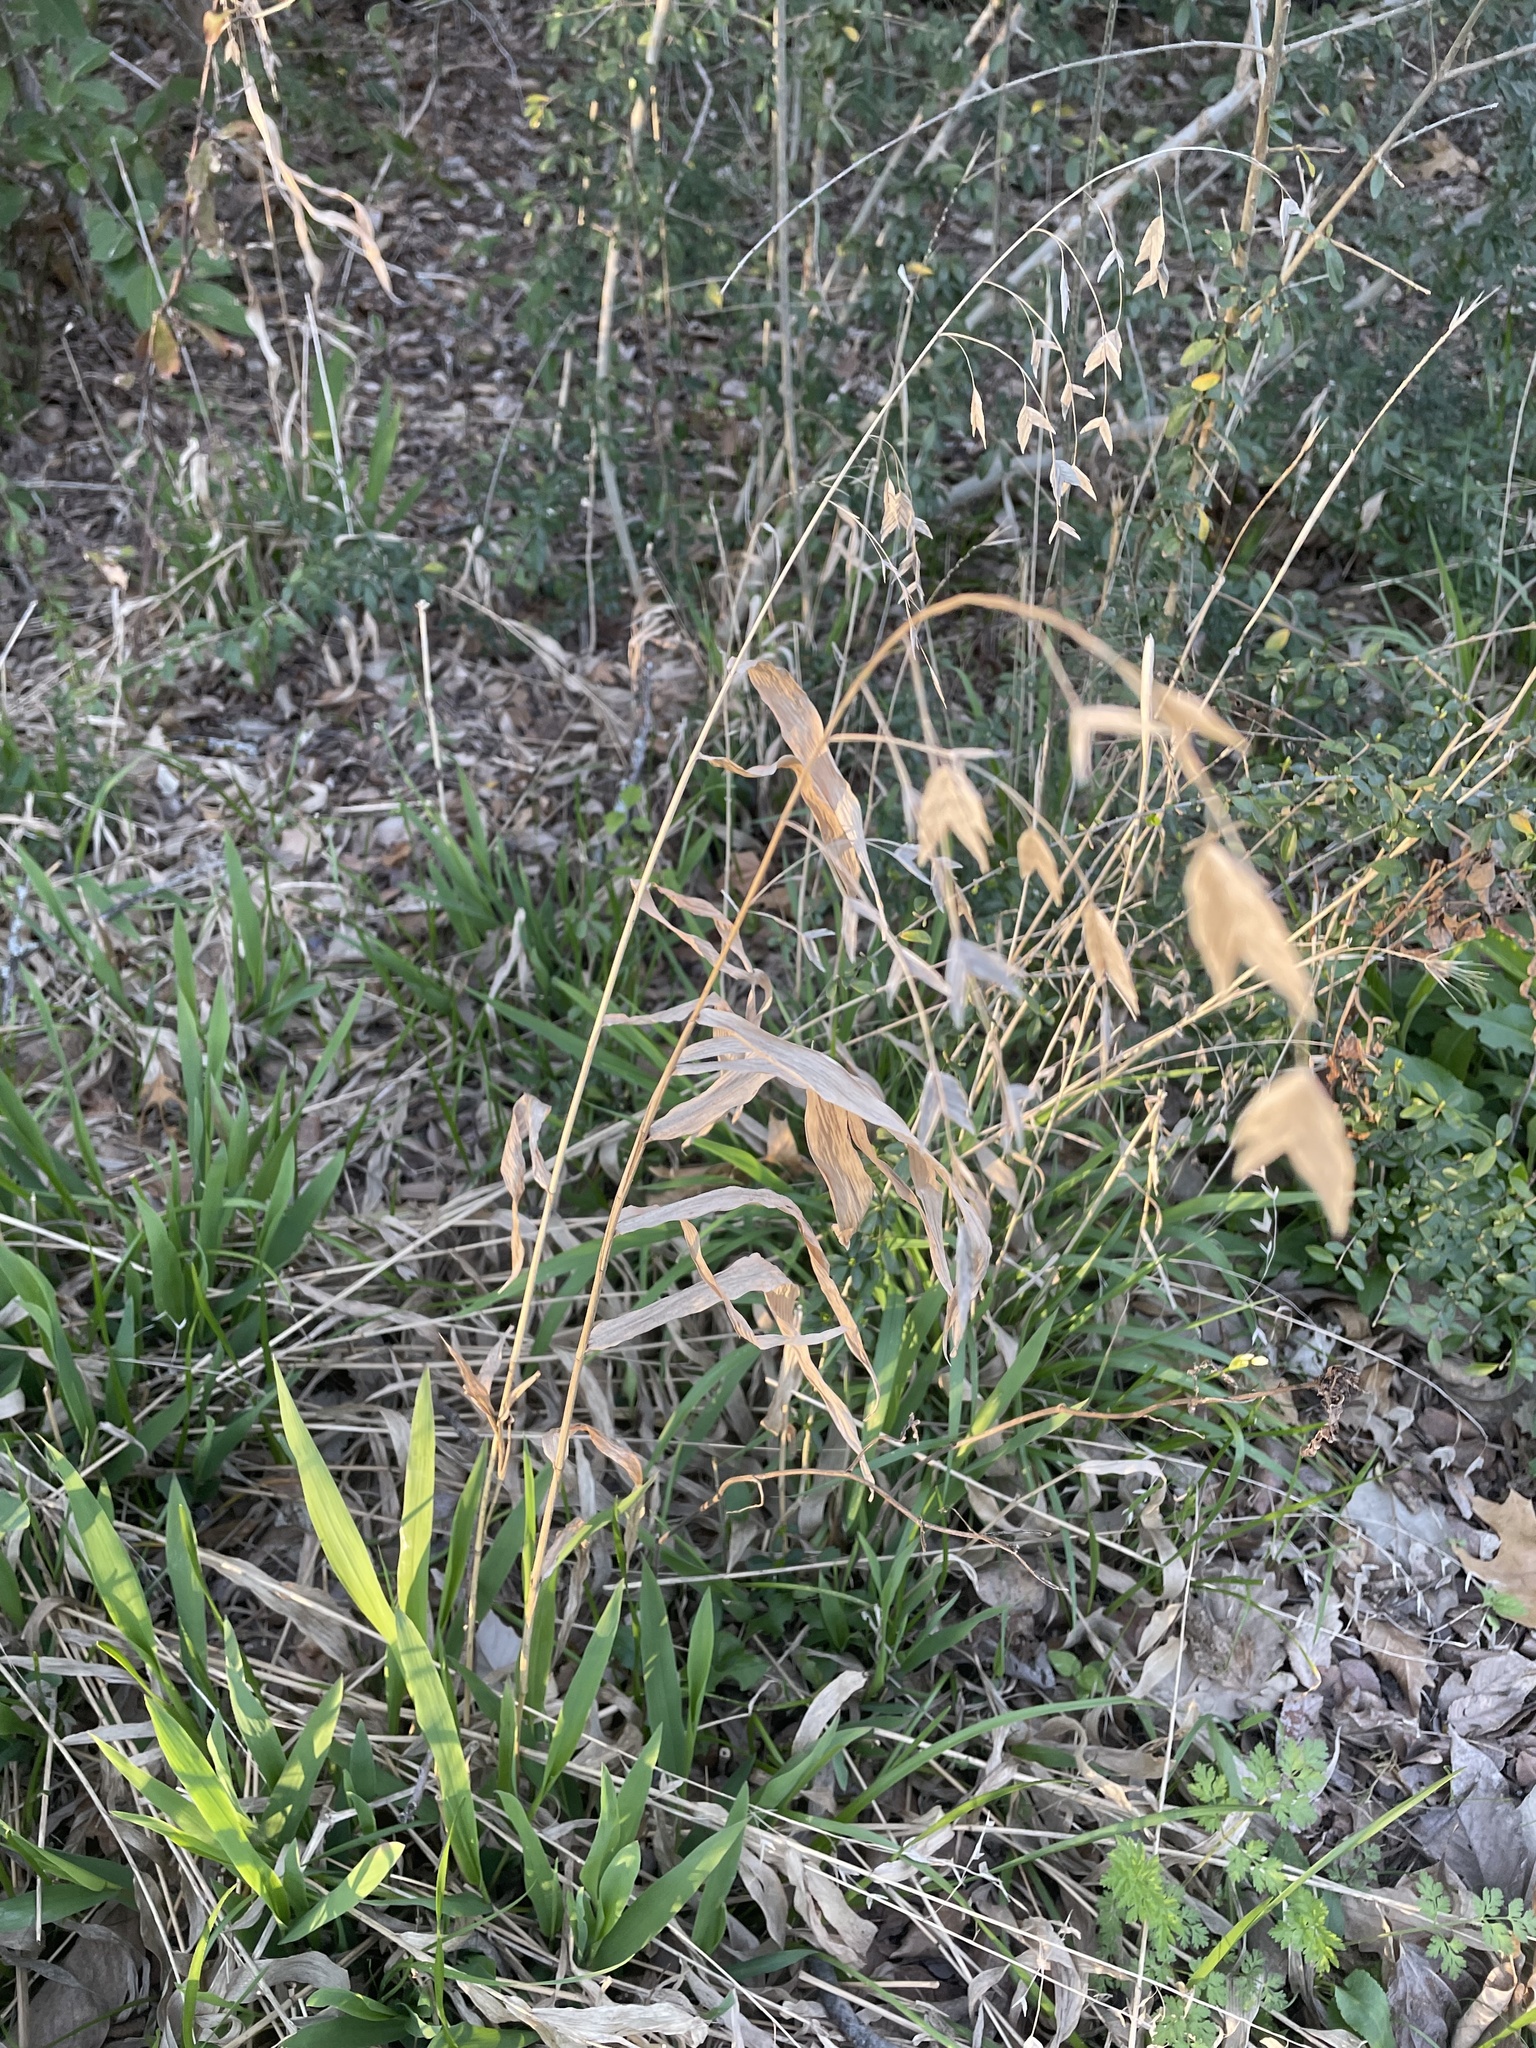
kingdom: Plantae
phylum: Tracheophyta
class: Liliopsida
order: Poales
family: Poaceae
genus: Chasmanthium
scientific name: Chasmanthium latifolium
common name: Broad-leaved chasmanthium
